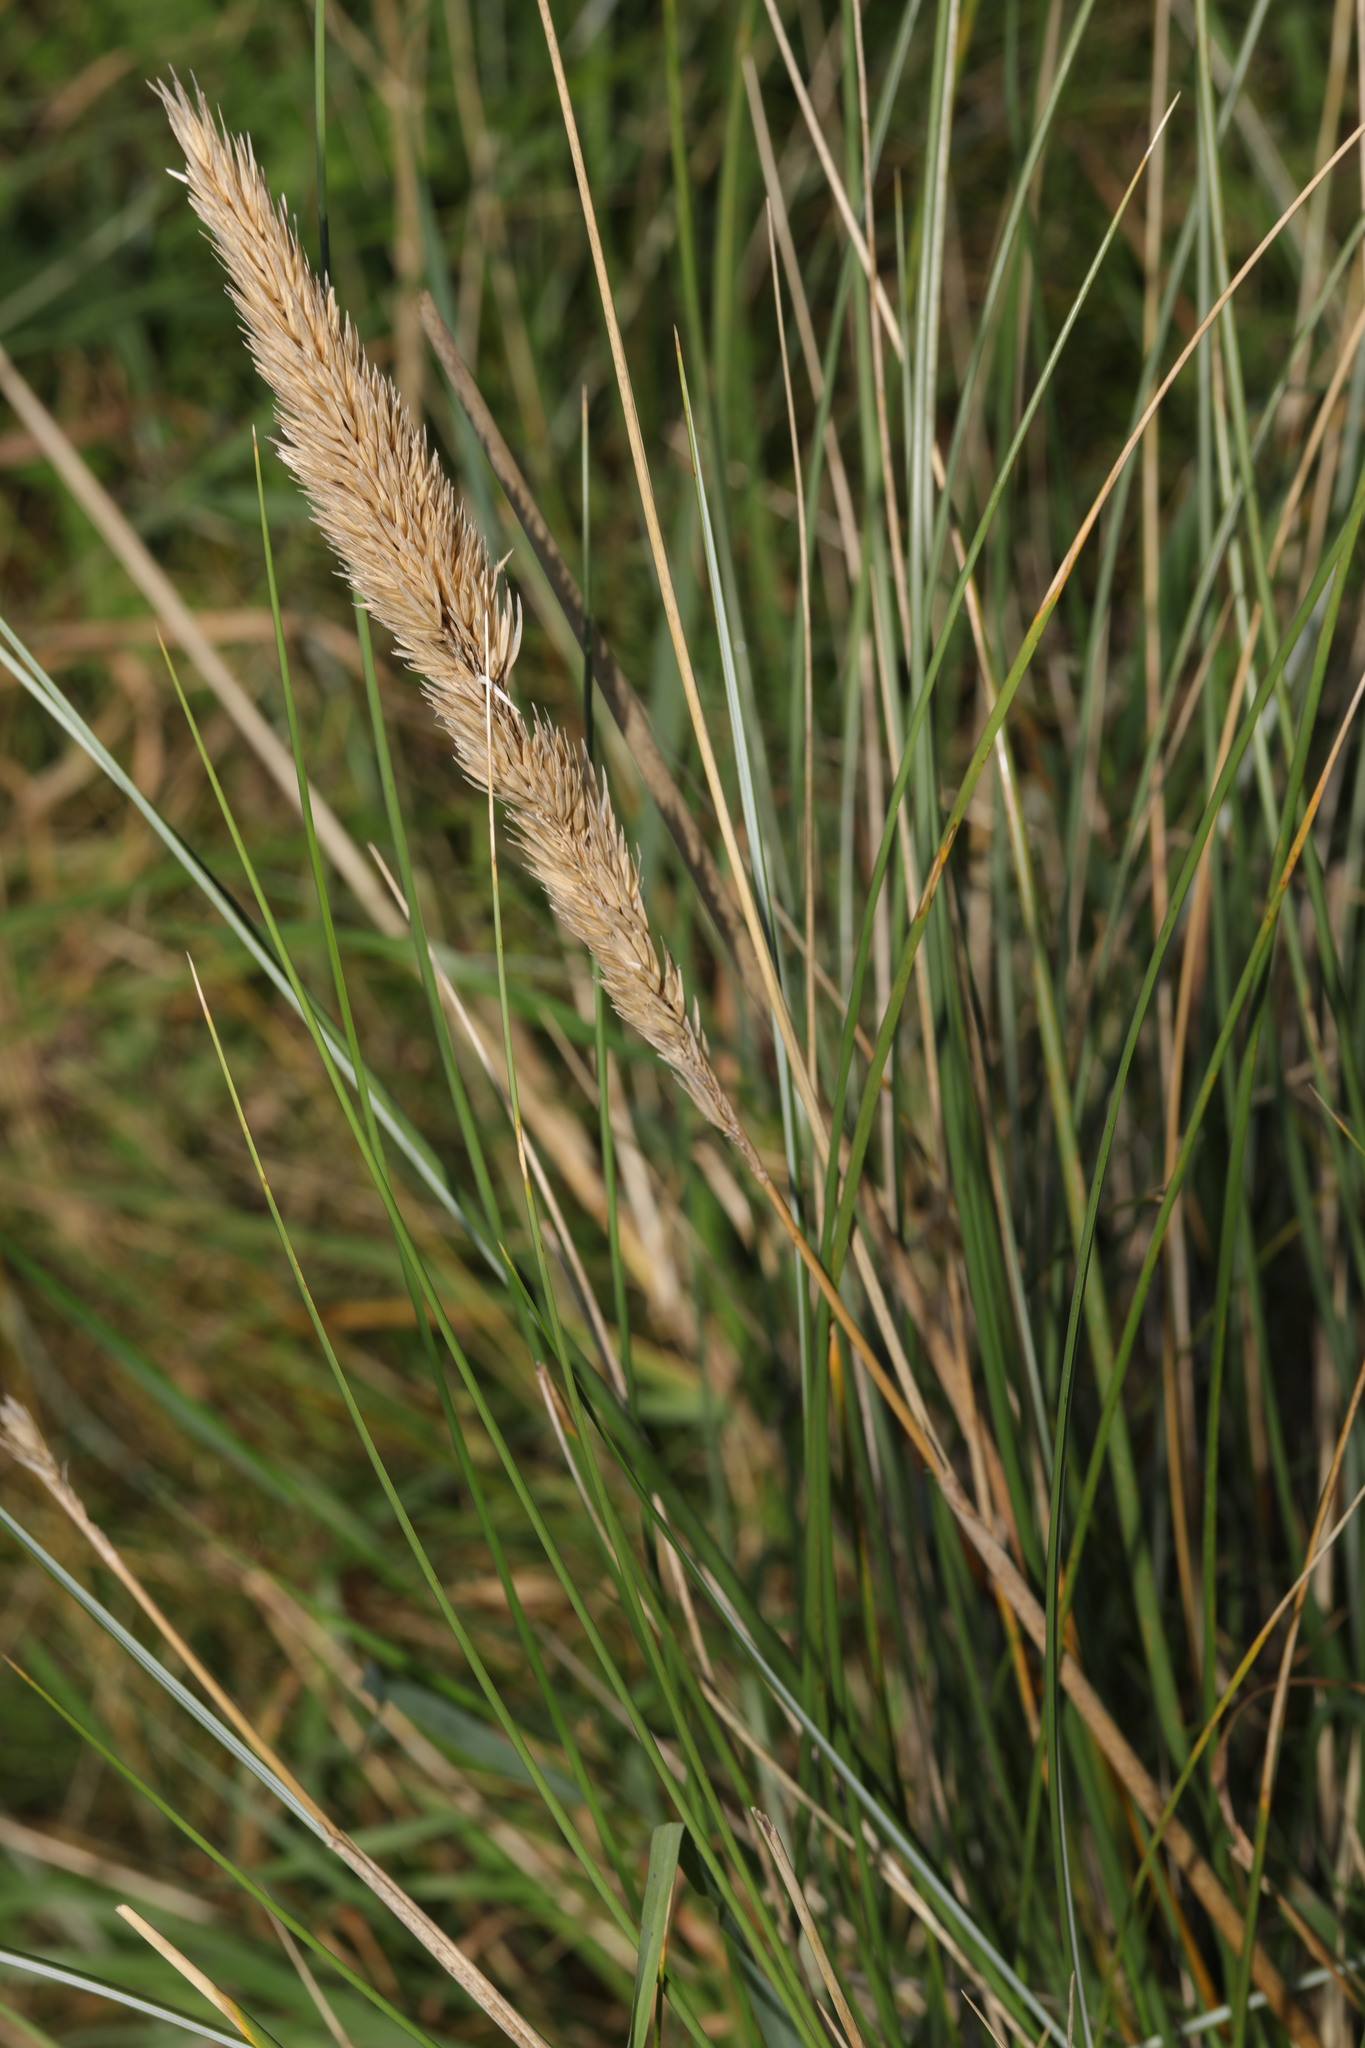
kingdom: Plantae
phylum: Tracheophyta
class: Liliopsida
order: Poales
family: Poaceae
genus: Calamagrostis
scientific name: Calamagrostis arenaria
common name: European beachgrass
